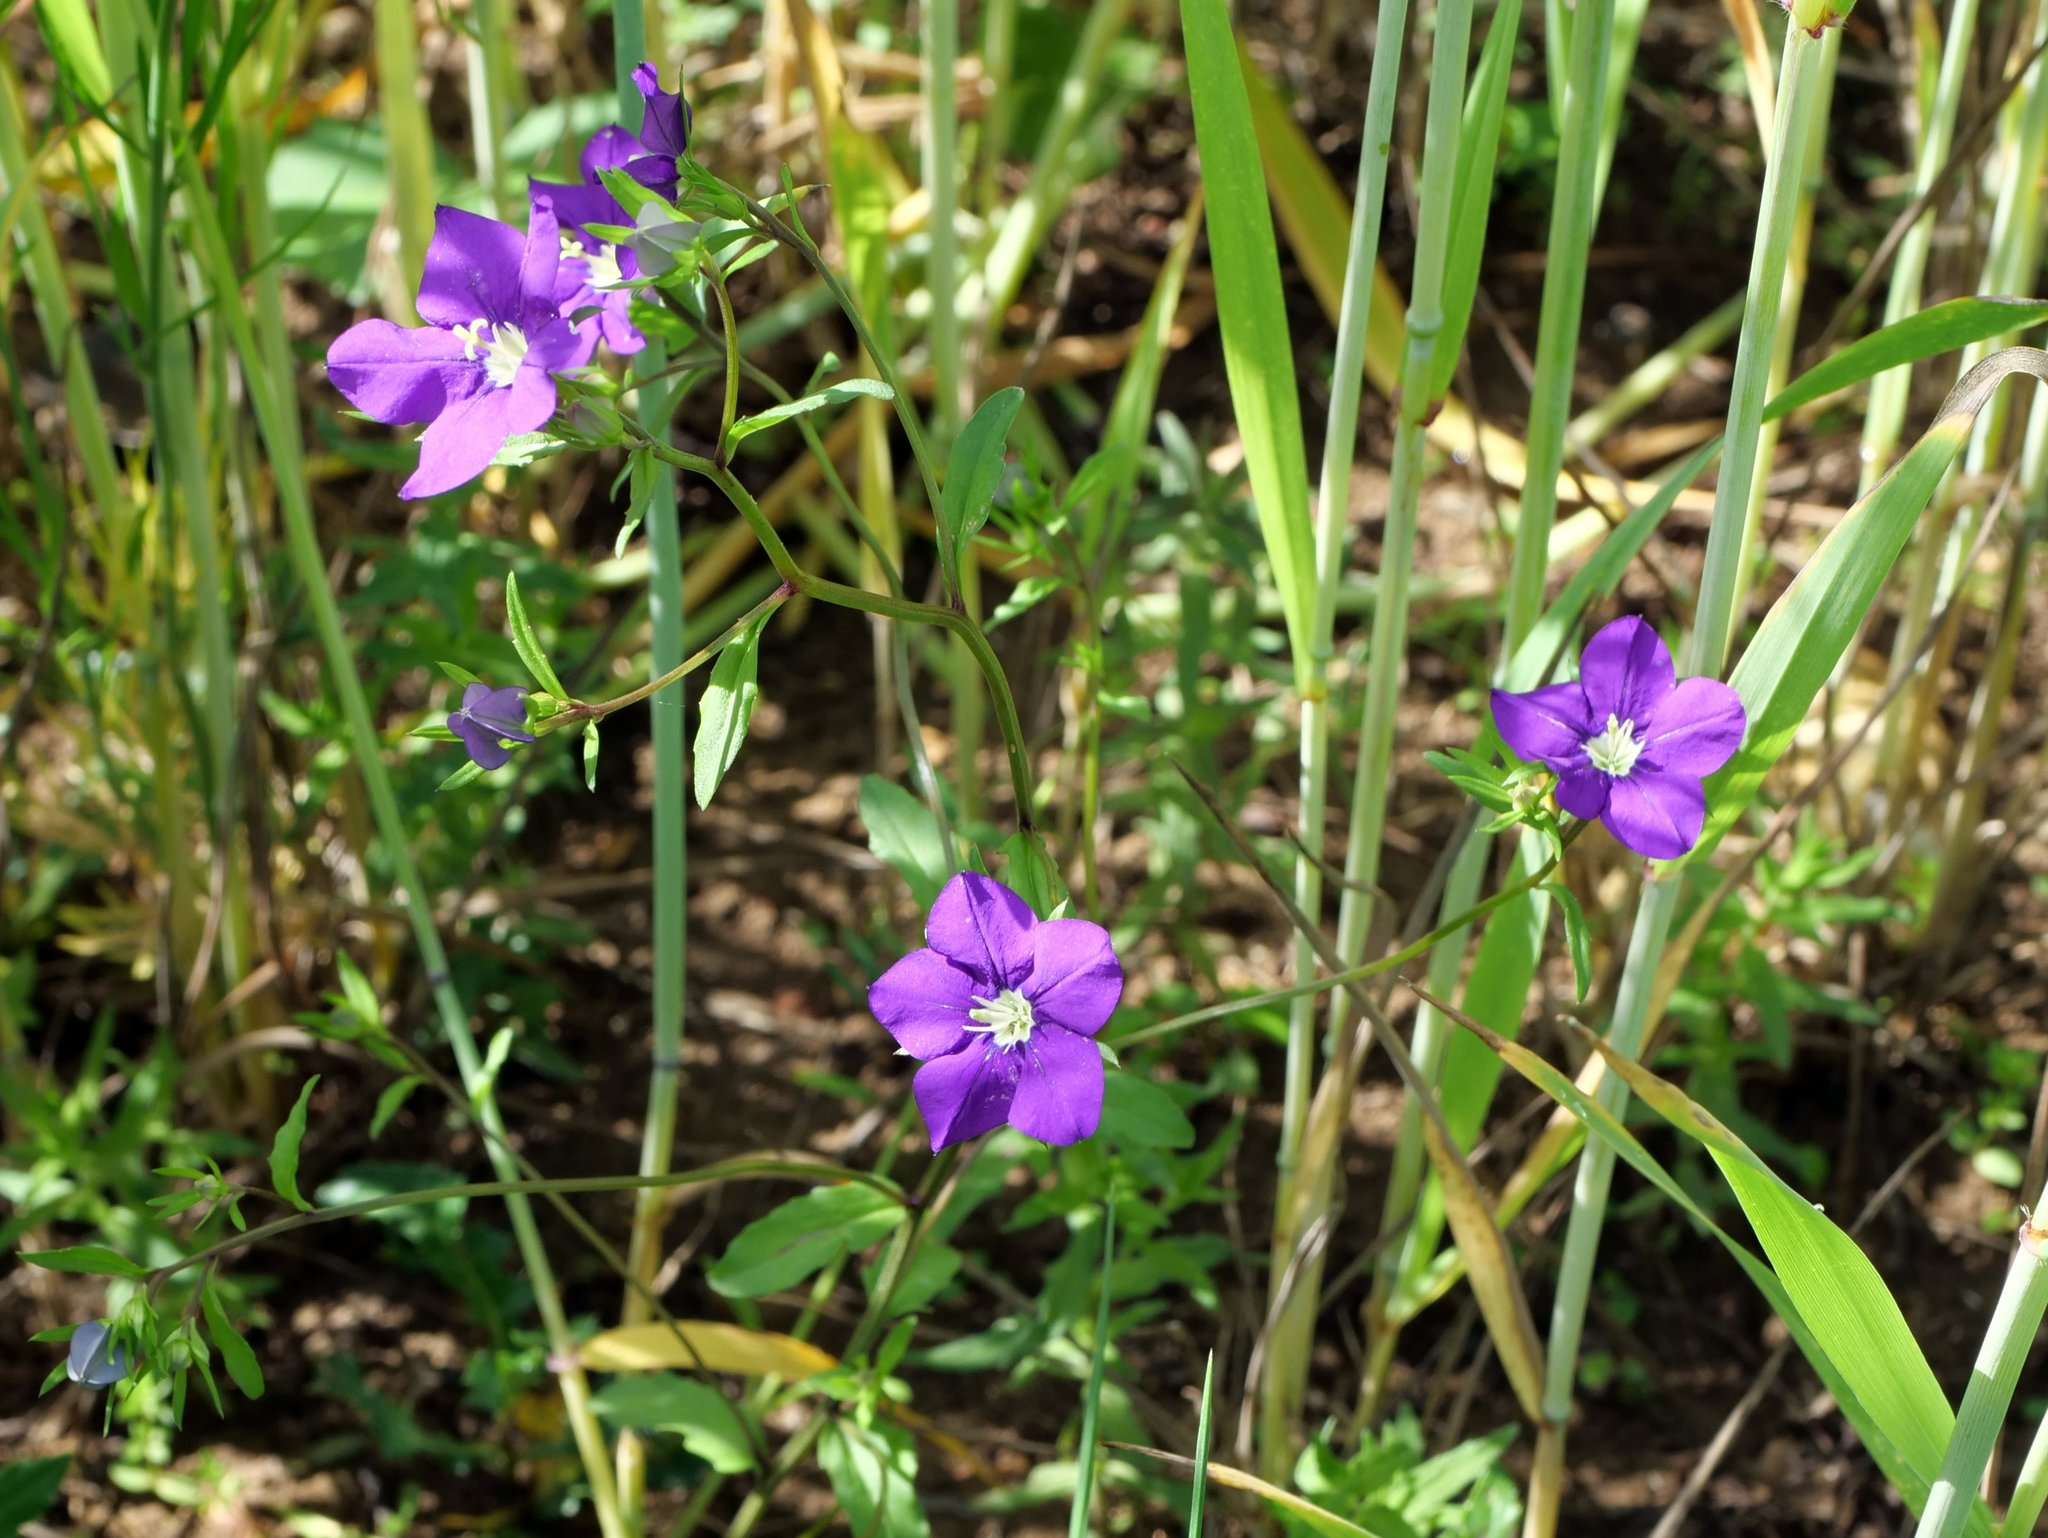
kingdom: Plantae
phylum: Tracheophyta
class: Magnoliopsida
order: Asterales
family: Campanulaceae
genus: Legousia
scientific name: Legousia speculum-veneris
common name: Large venus's-looking-glass
